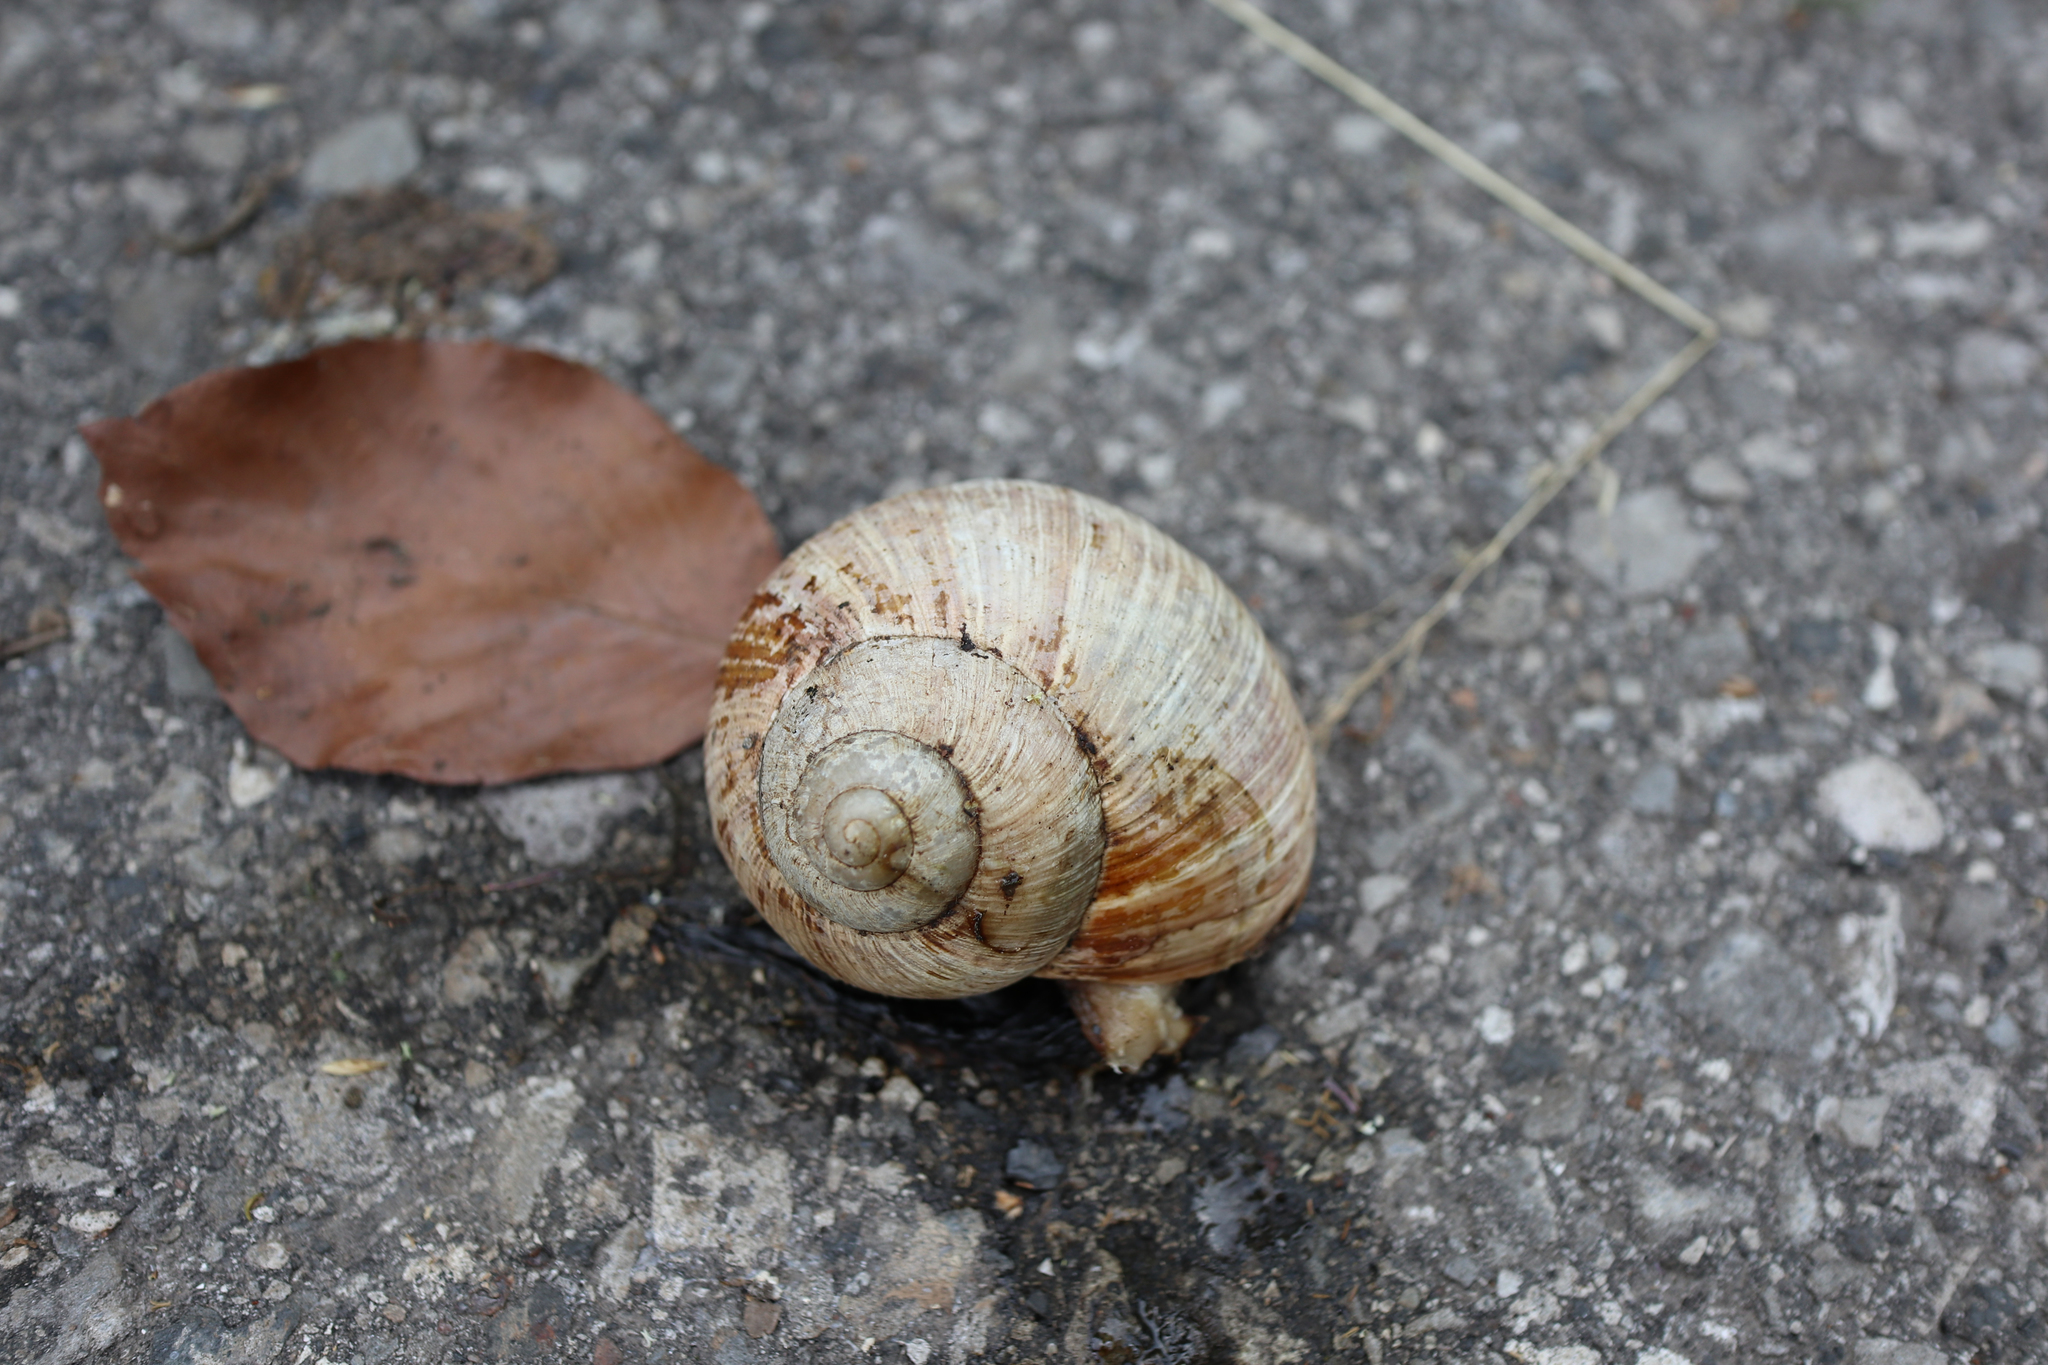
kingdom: Animalia
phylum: Mollusca
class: Gastropoda
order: Stylommatophora
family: Helicidae
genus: Helix
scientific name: Helix pomatia
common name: Roman snail
